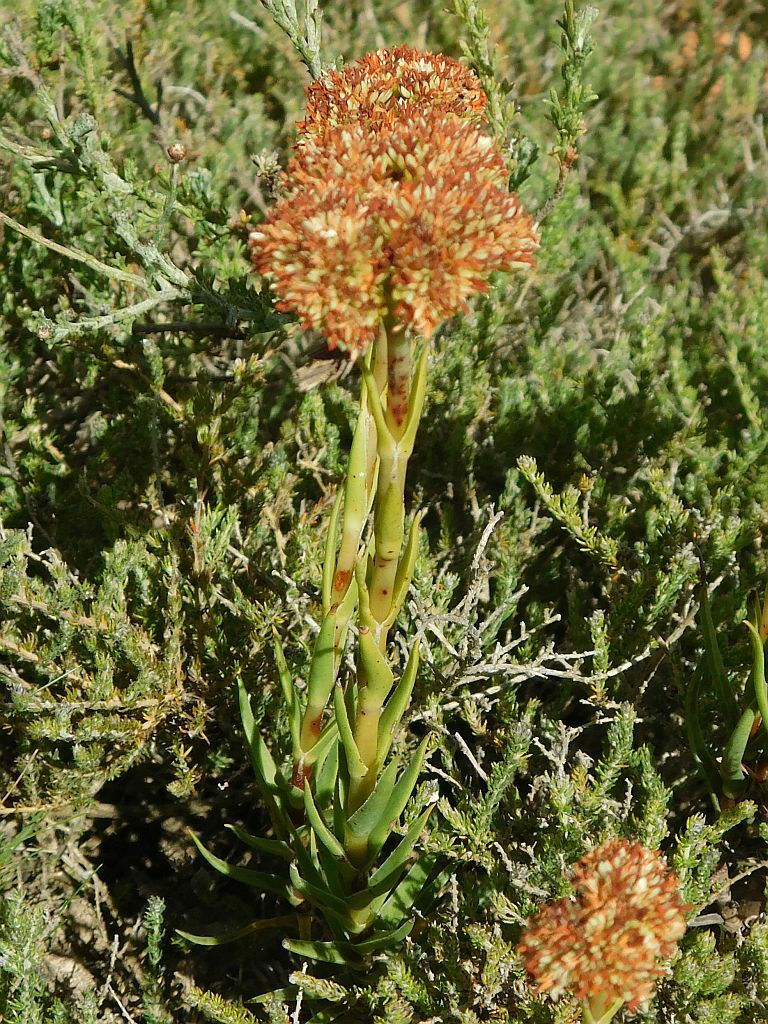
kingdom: Plantae
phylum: Tracheophyta
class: Magnoliopsida
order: Saxifragales
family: Crassulaceae
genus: Crassula
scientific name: Crassula fascicularis
